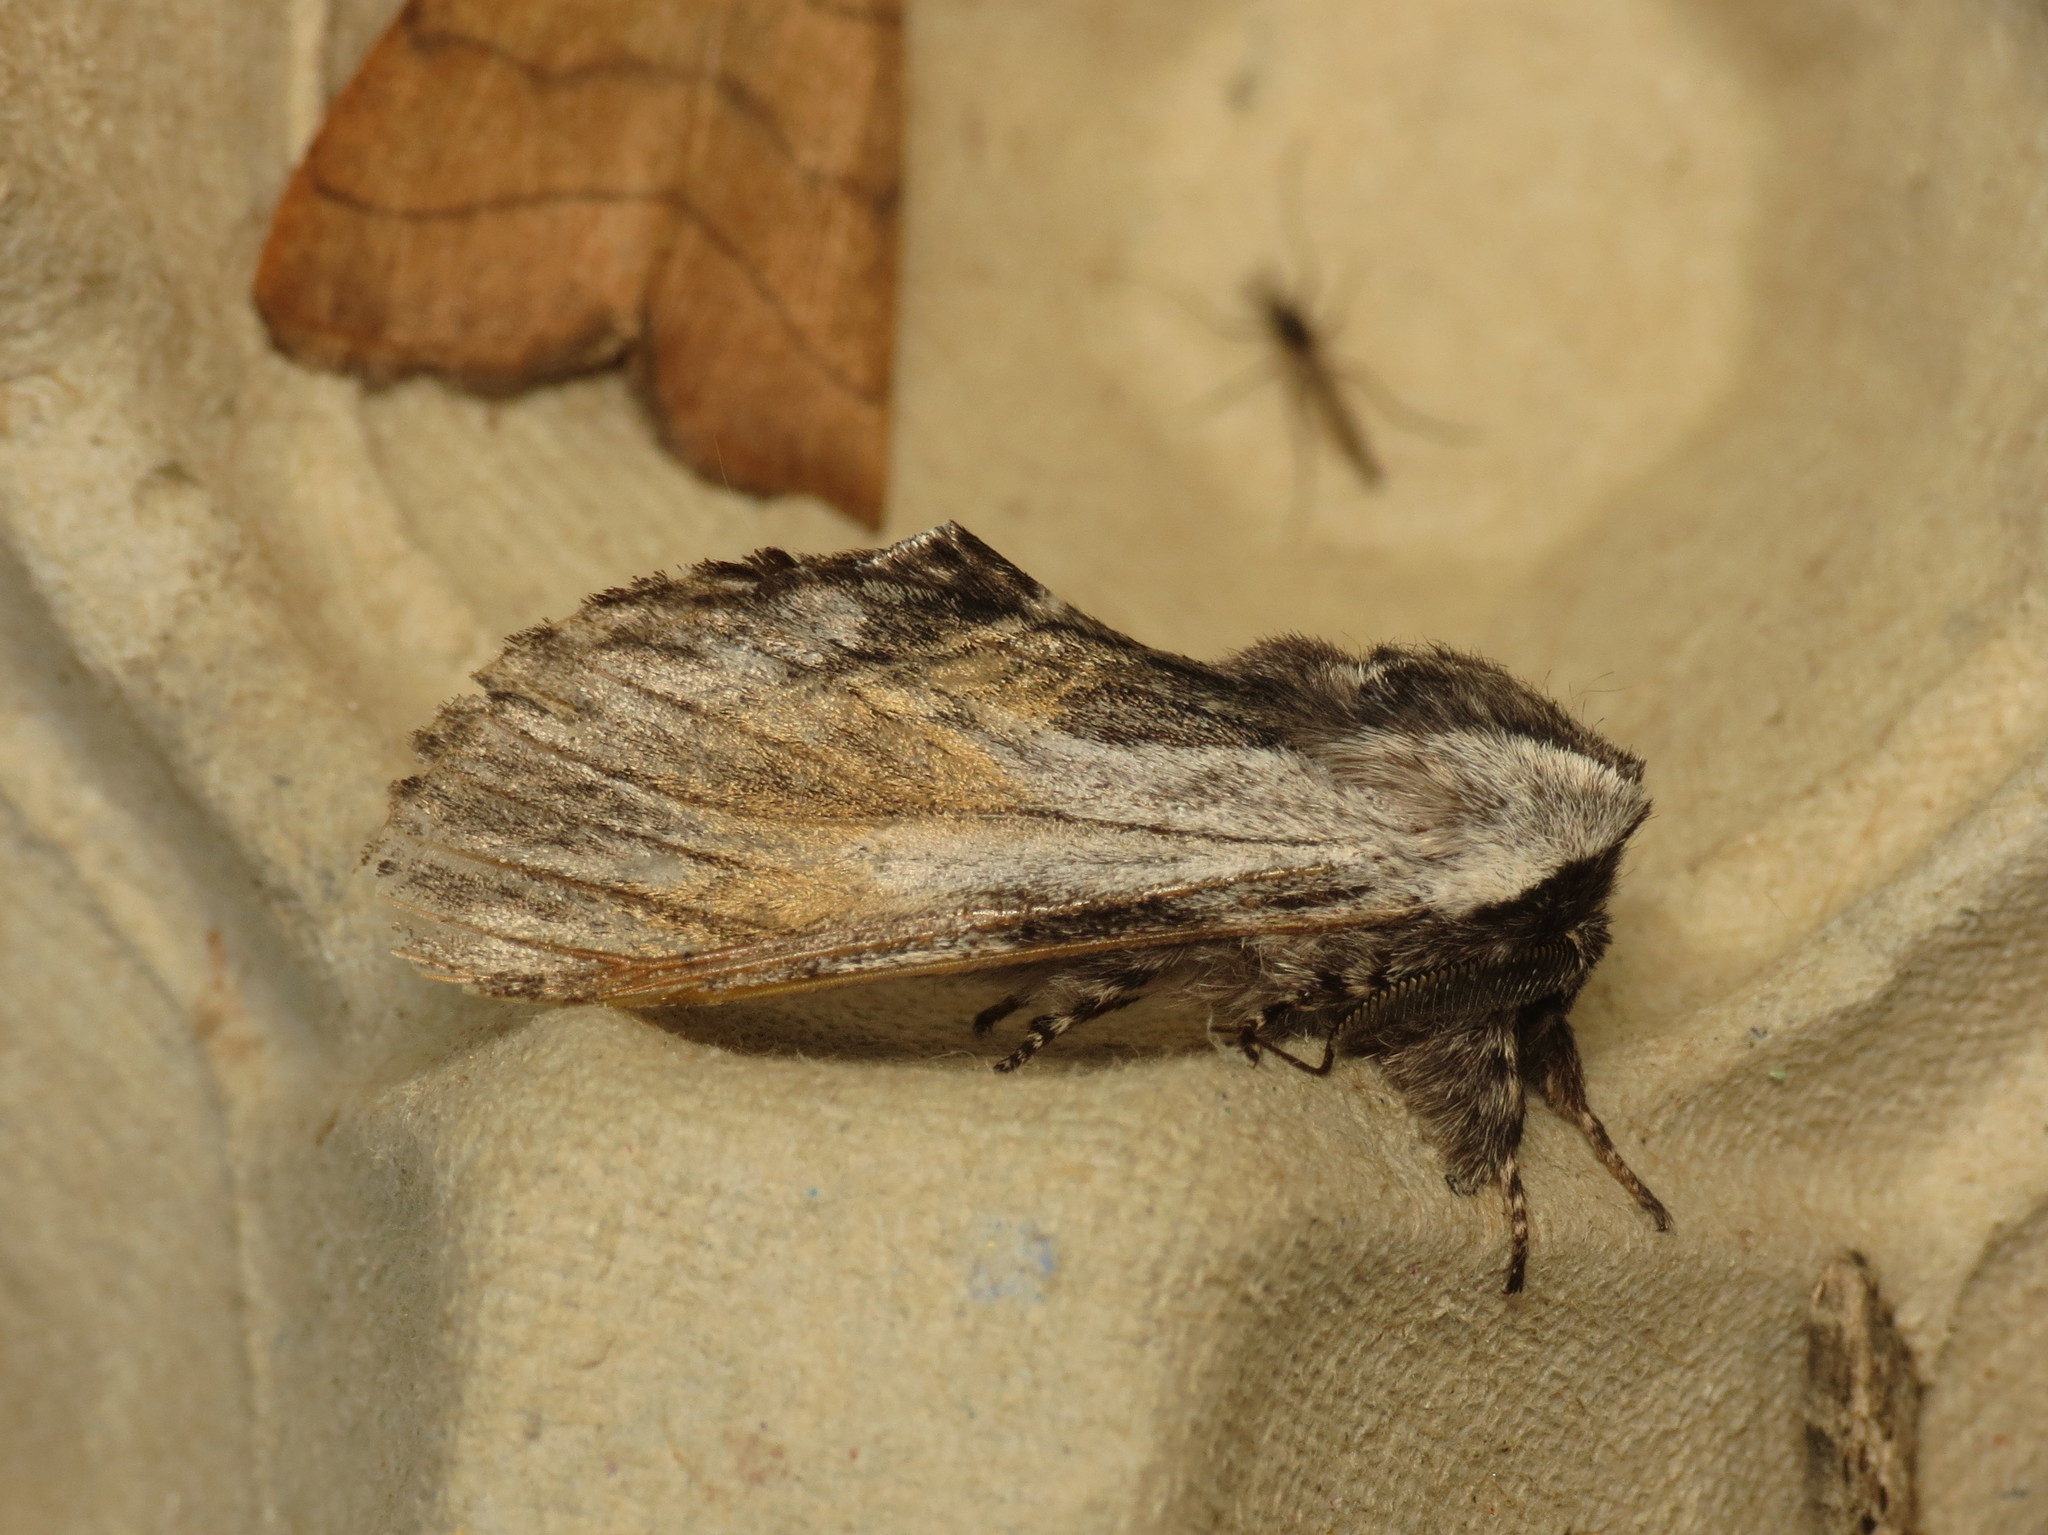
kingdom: Animalia
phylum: Arthropoda
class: Insecta
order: Lepidoptera
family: Notodontidae
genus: Harpyia
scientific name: Harpyia milhauseri
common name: Tawny prominent
